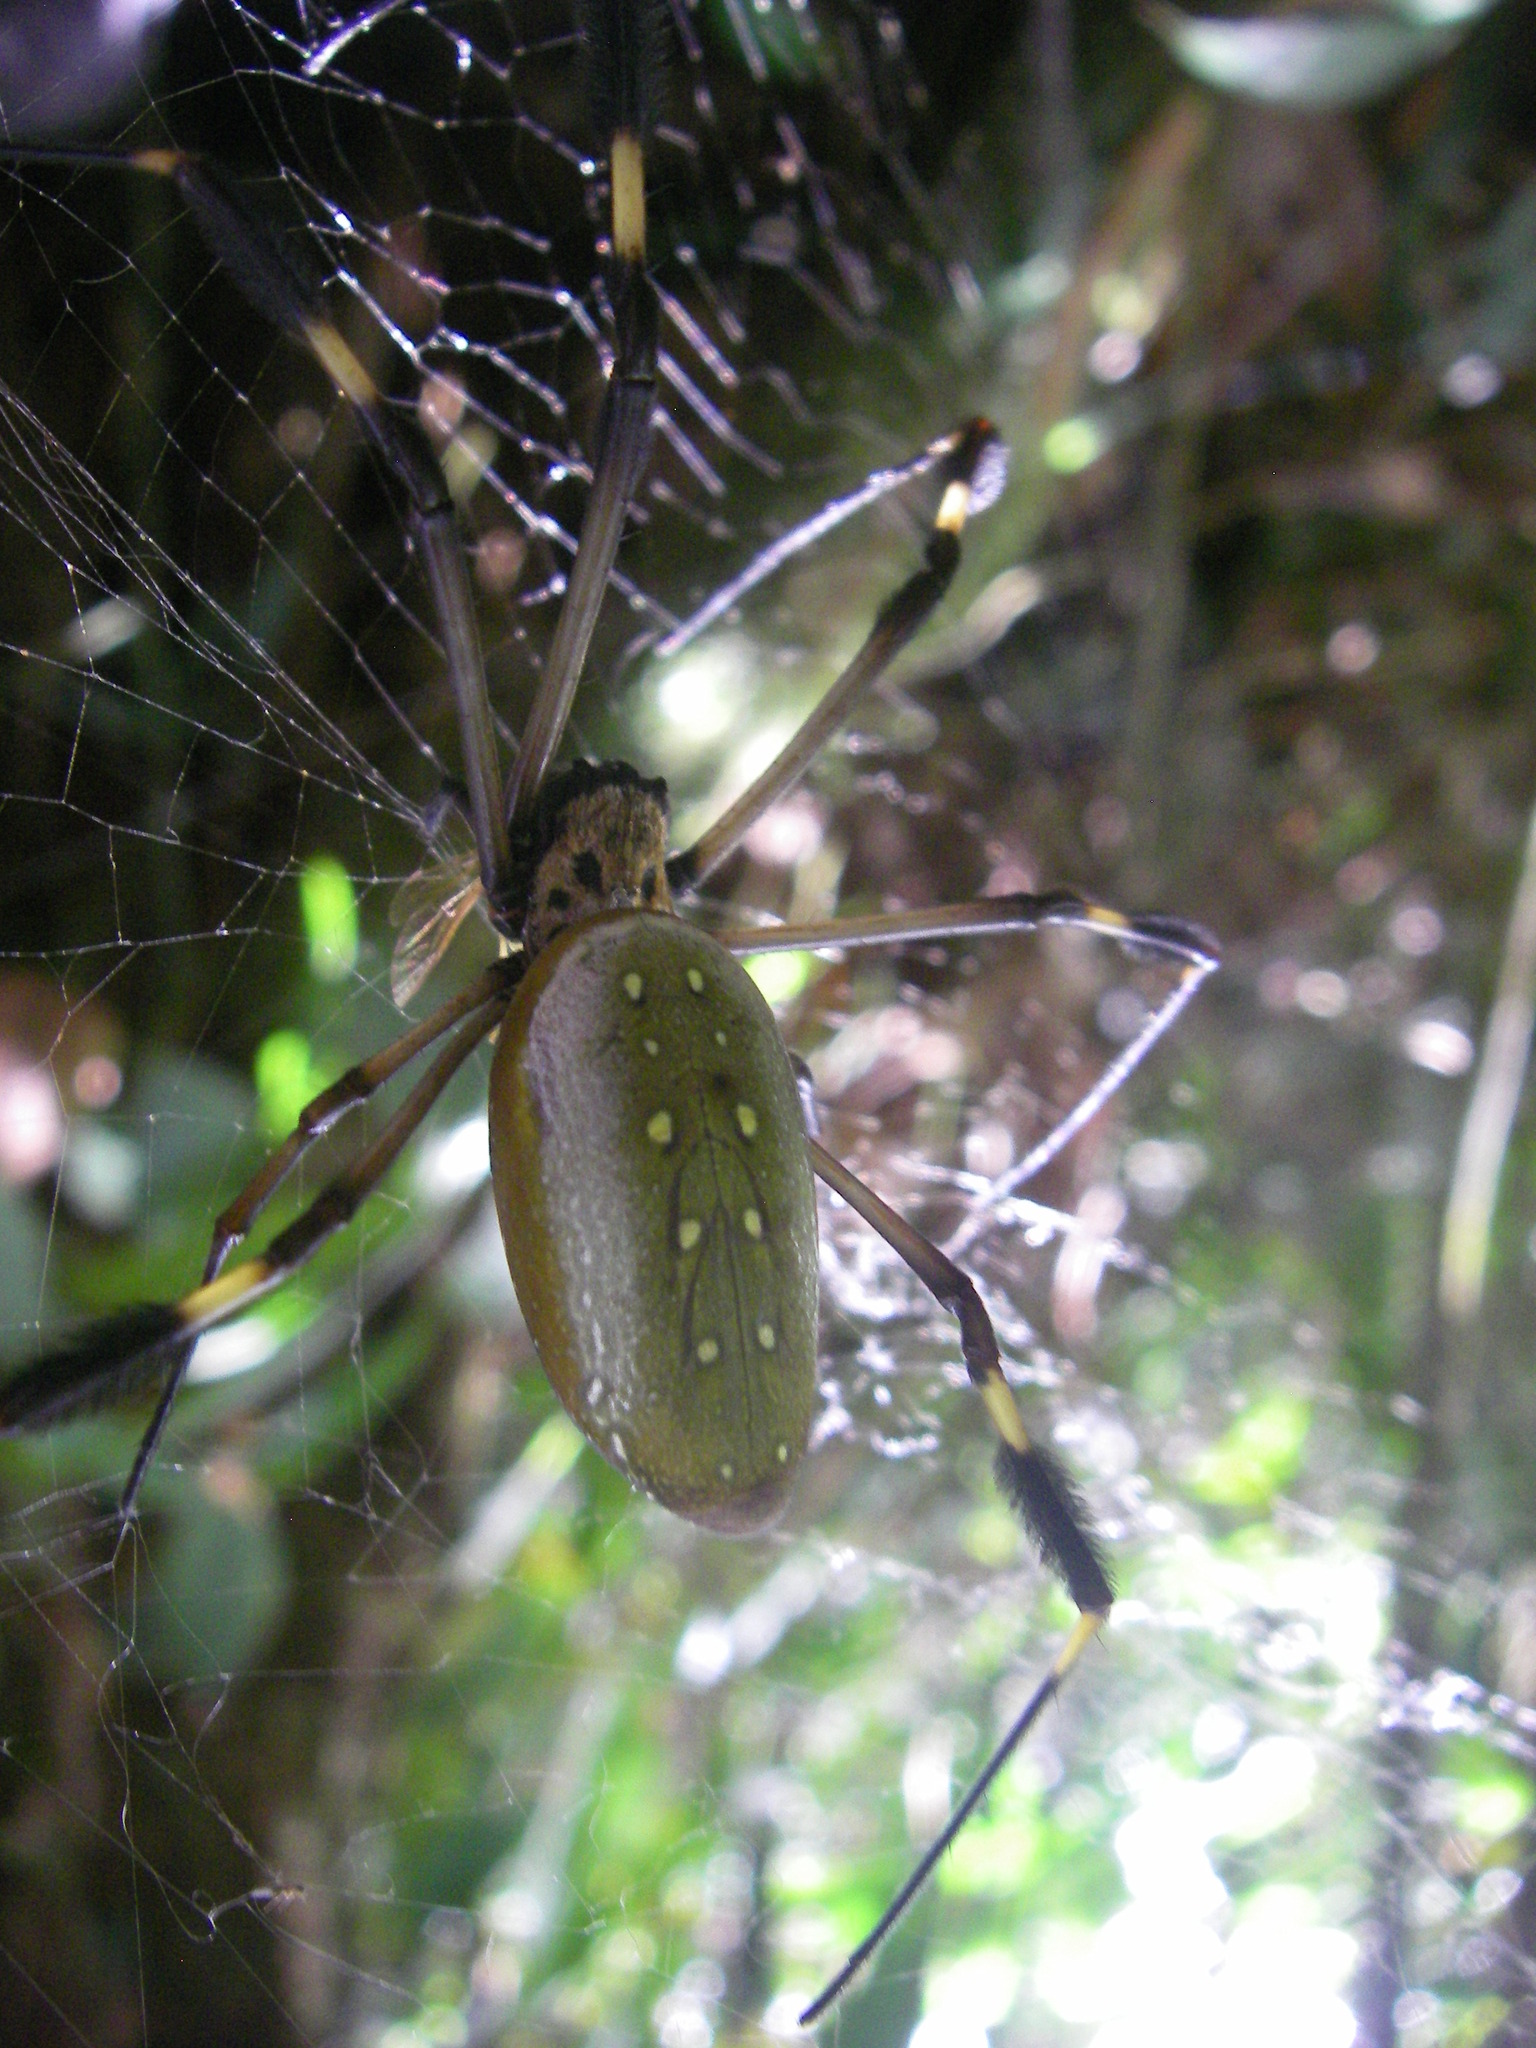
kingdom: Animalia
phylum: Arthropoda
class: Arachnida
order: Araneae
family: Araneidae
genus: Trichonephila
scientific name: Trichonephila clavipes
